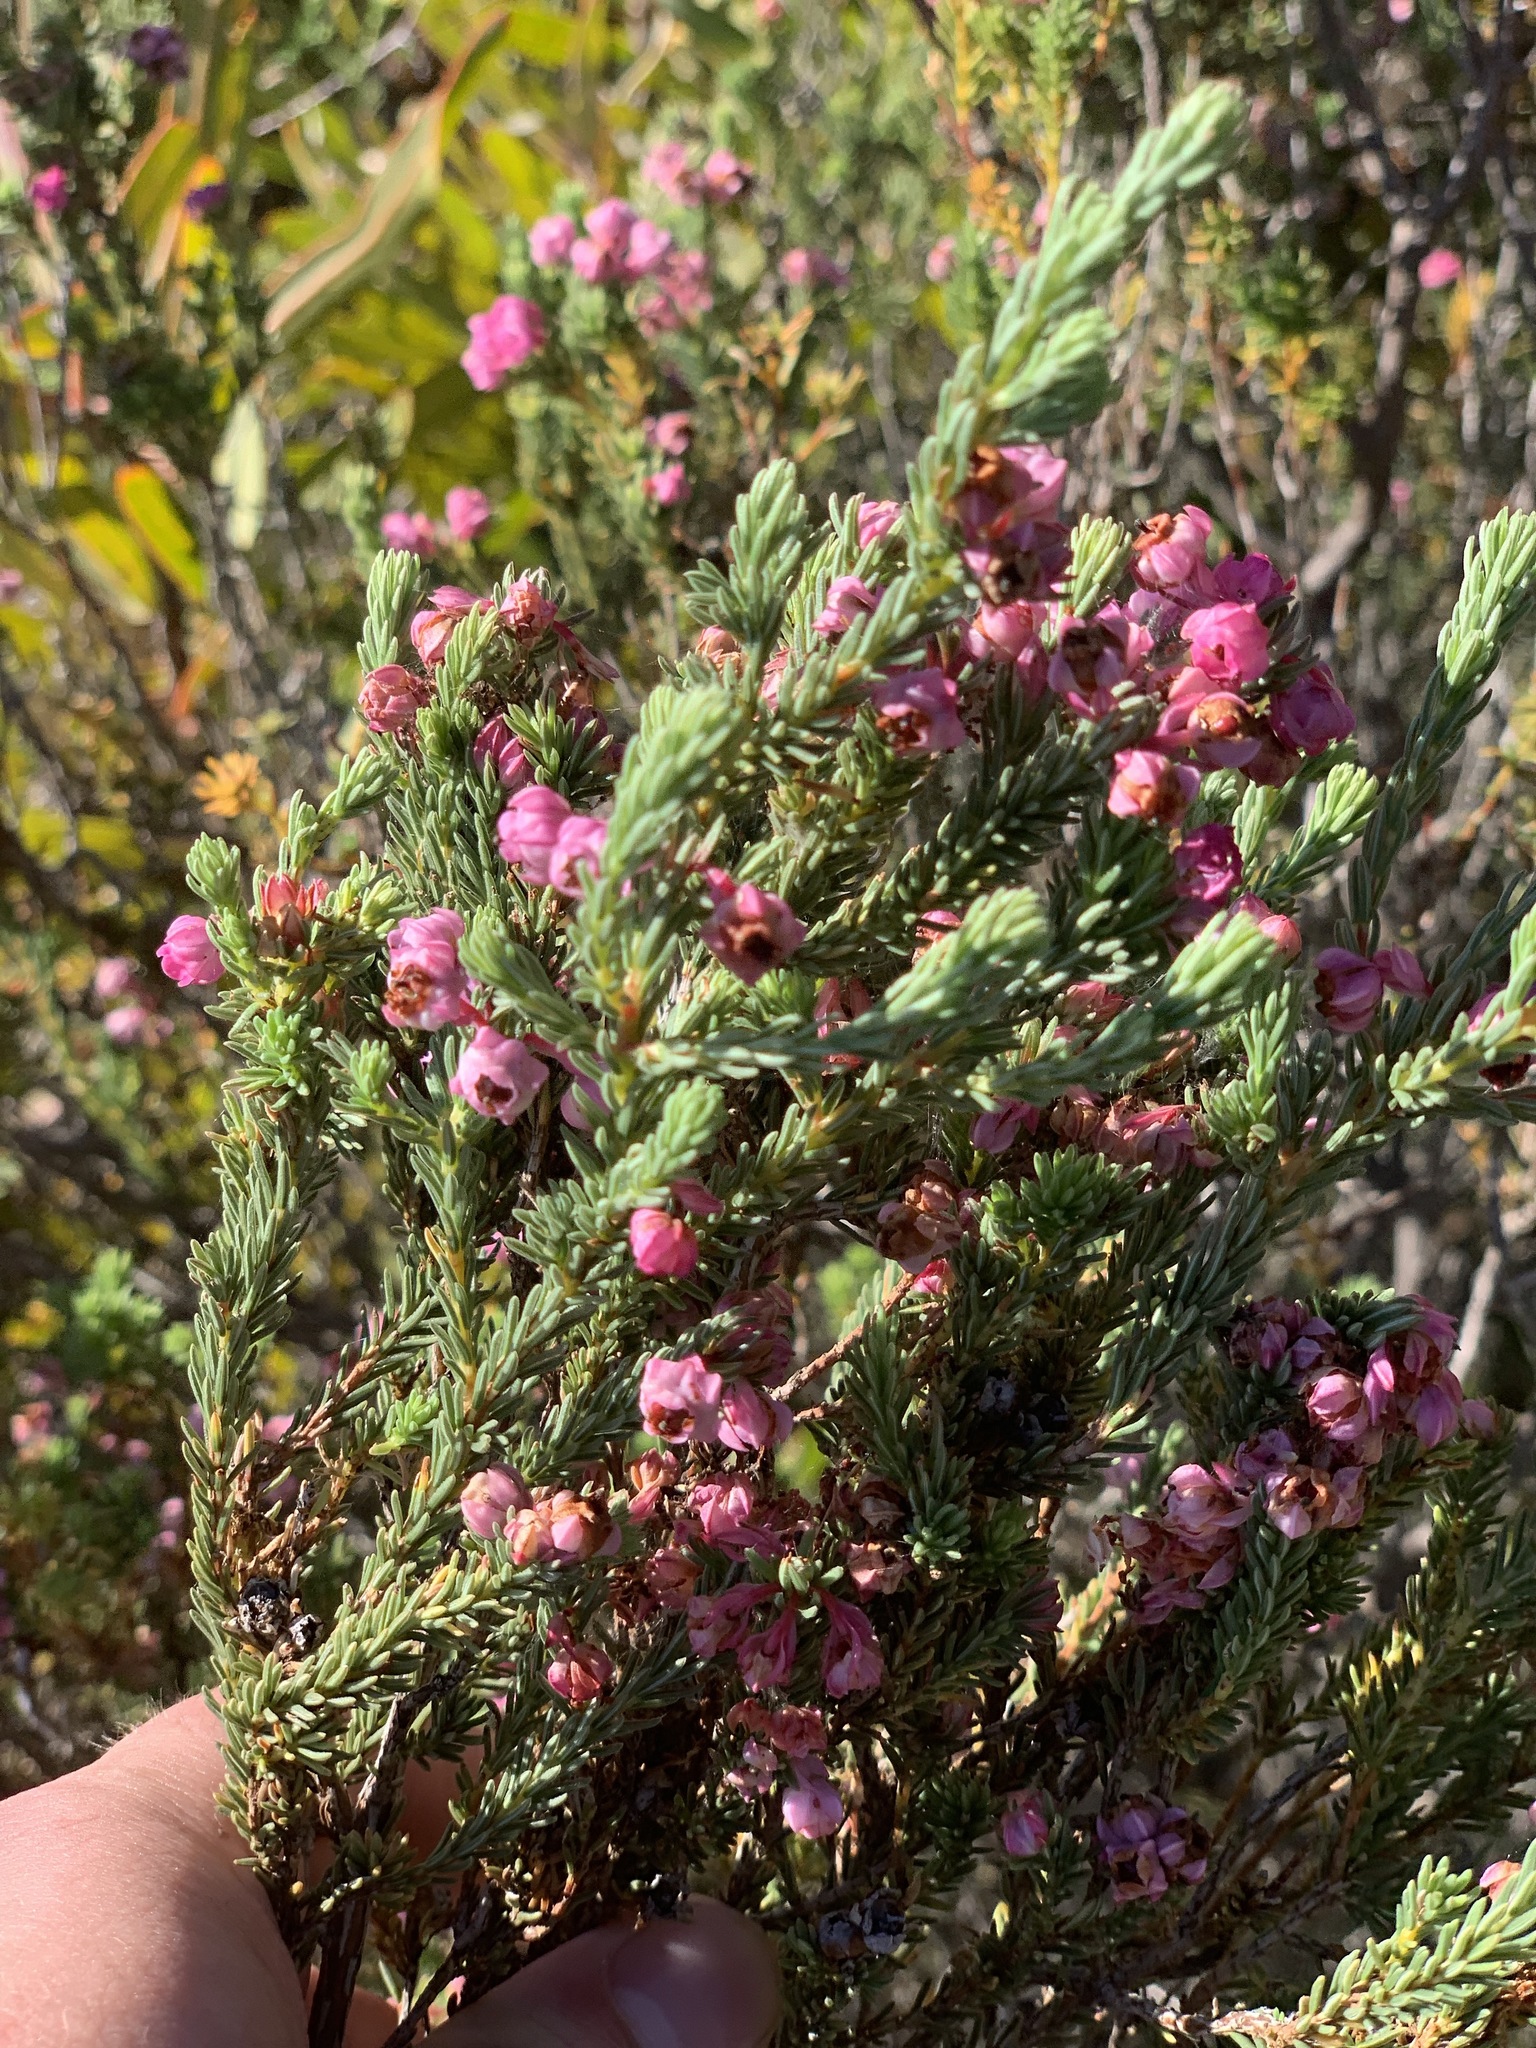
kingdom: Plantae
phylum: Tracheophyta
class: Magnoliopsida
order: Ericales
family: Ericaceae
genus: Erica
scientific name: Erica baccans
